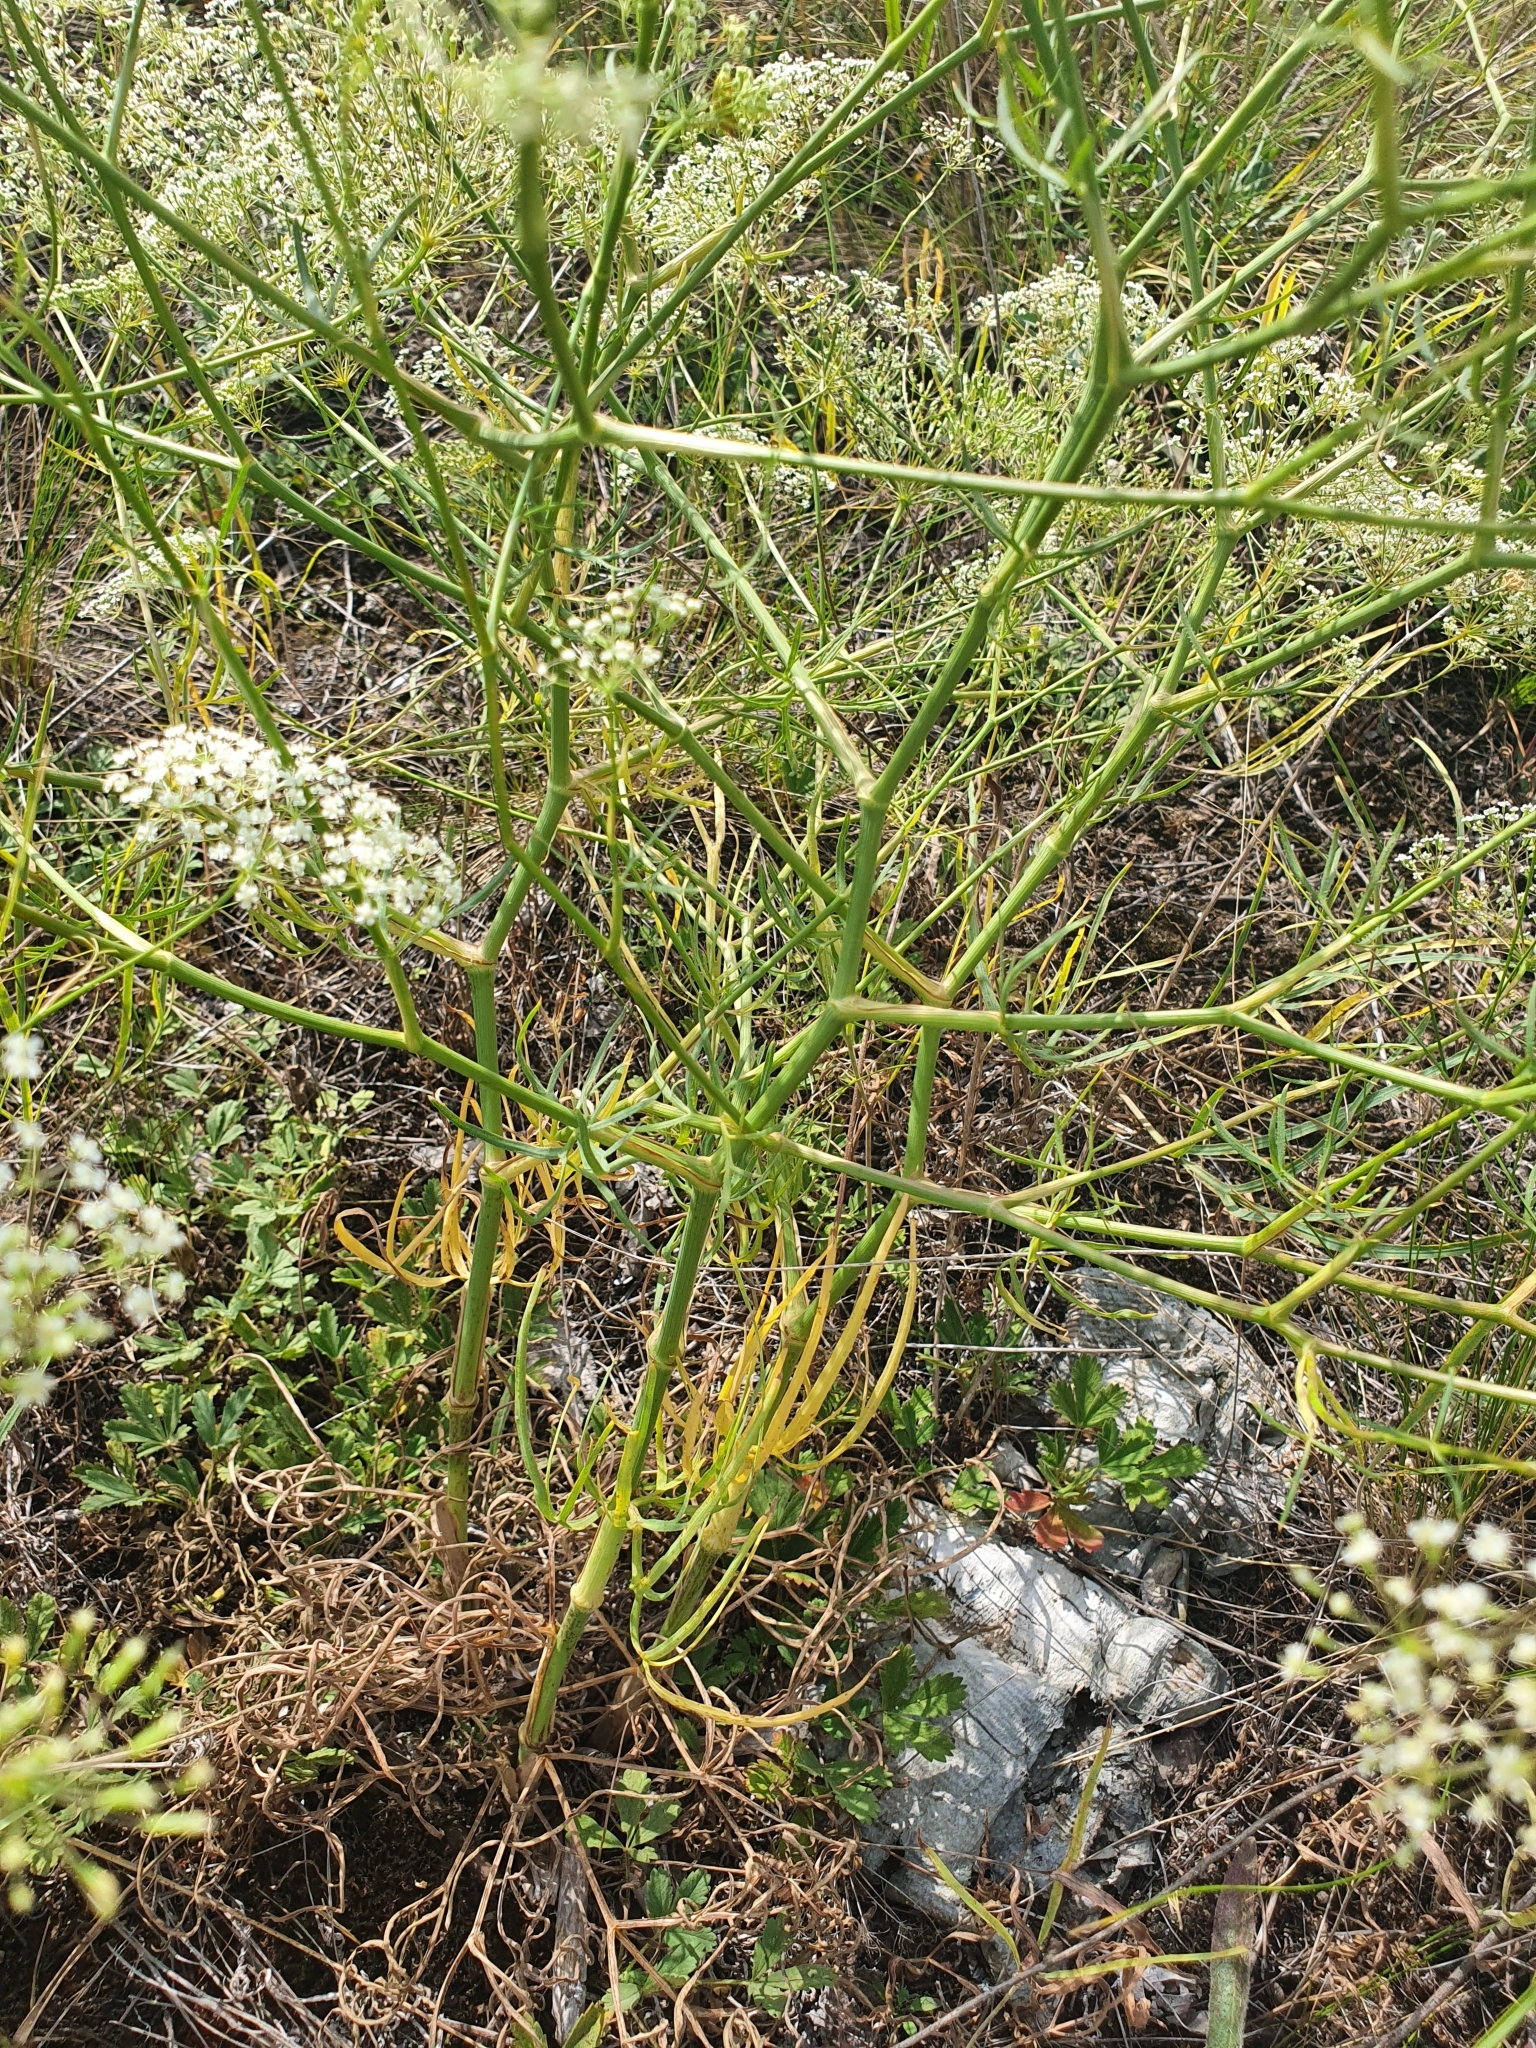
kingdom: Plantae
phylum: Tracheophyta
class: Magnoliopsida
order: Apiales
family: Apiaceae
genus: Falcaria
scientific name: Falcaria vulgaris
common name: Longleaf
